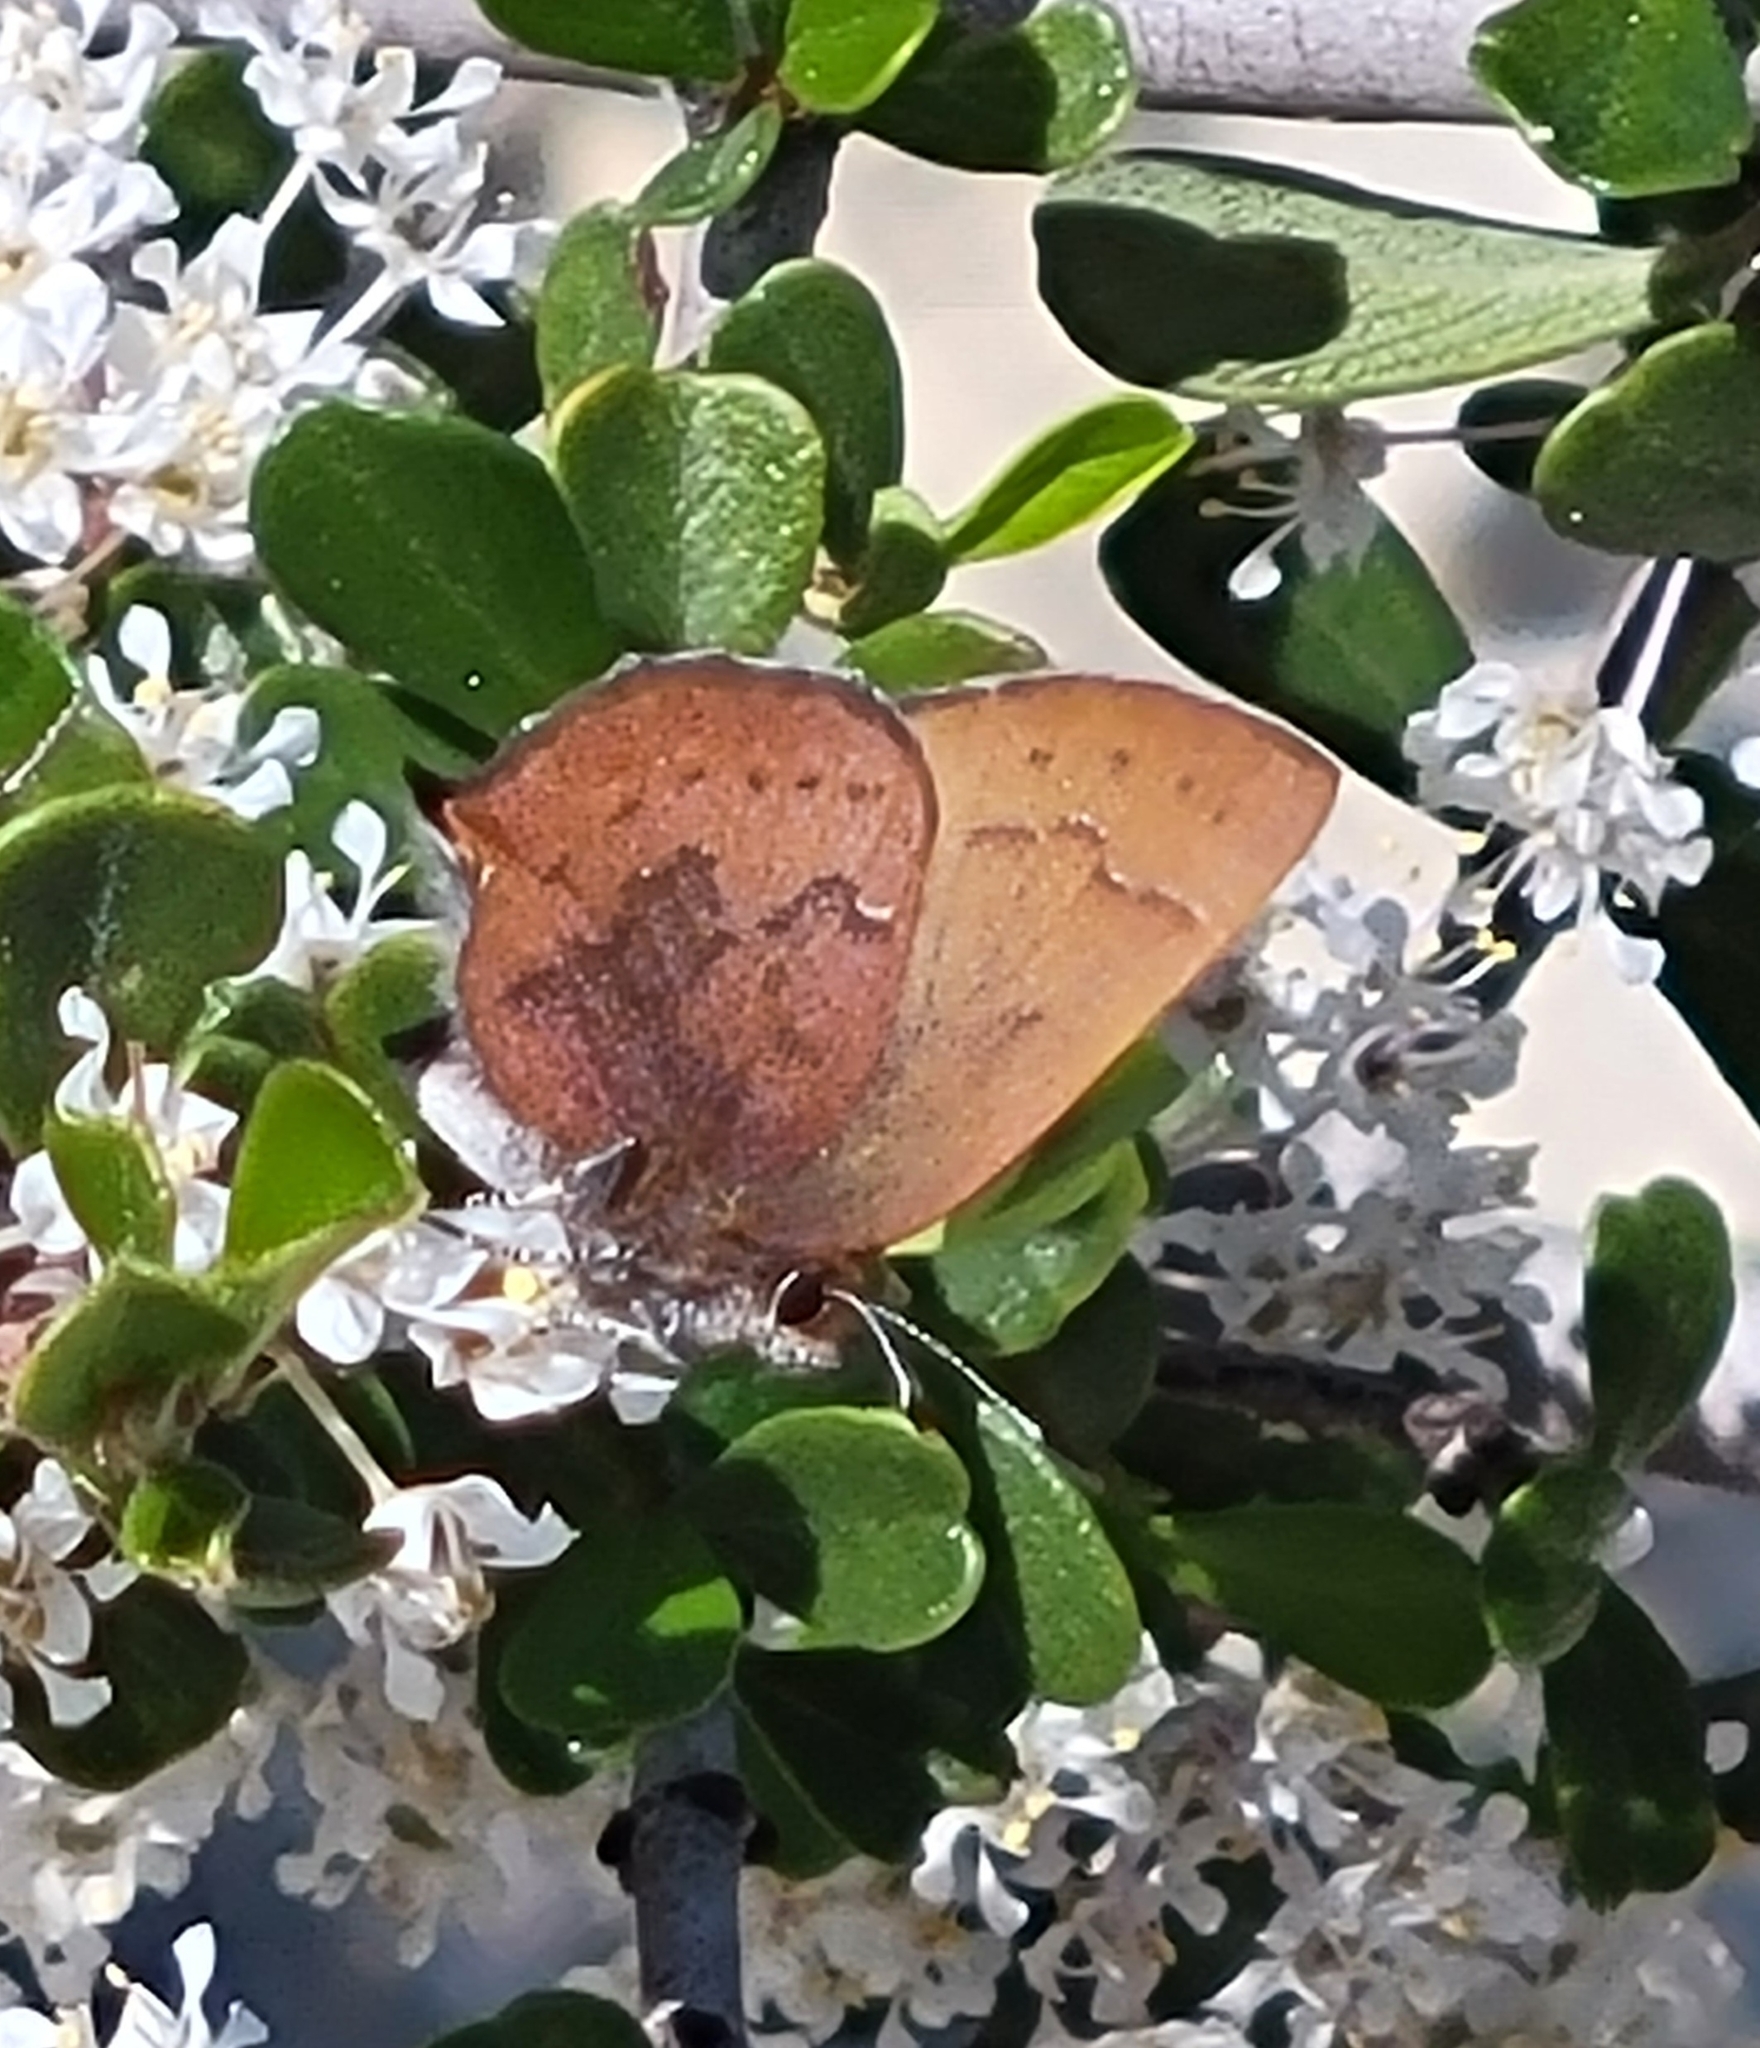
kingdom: Animalia
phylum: Arthropoda
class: Insecta
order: Lepidoptera
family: Lycaenidae
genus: Incisalia
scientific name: Incisalia irioides
